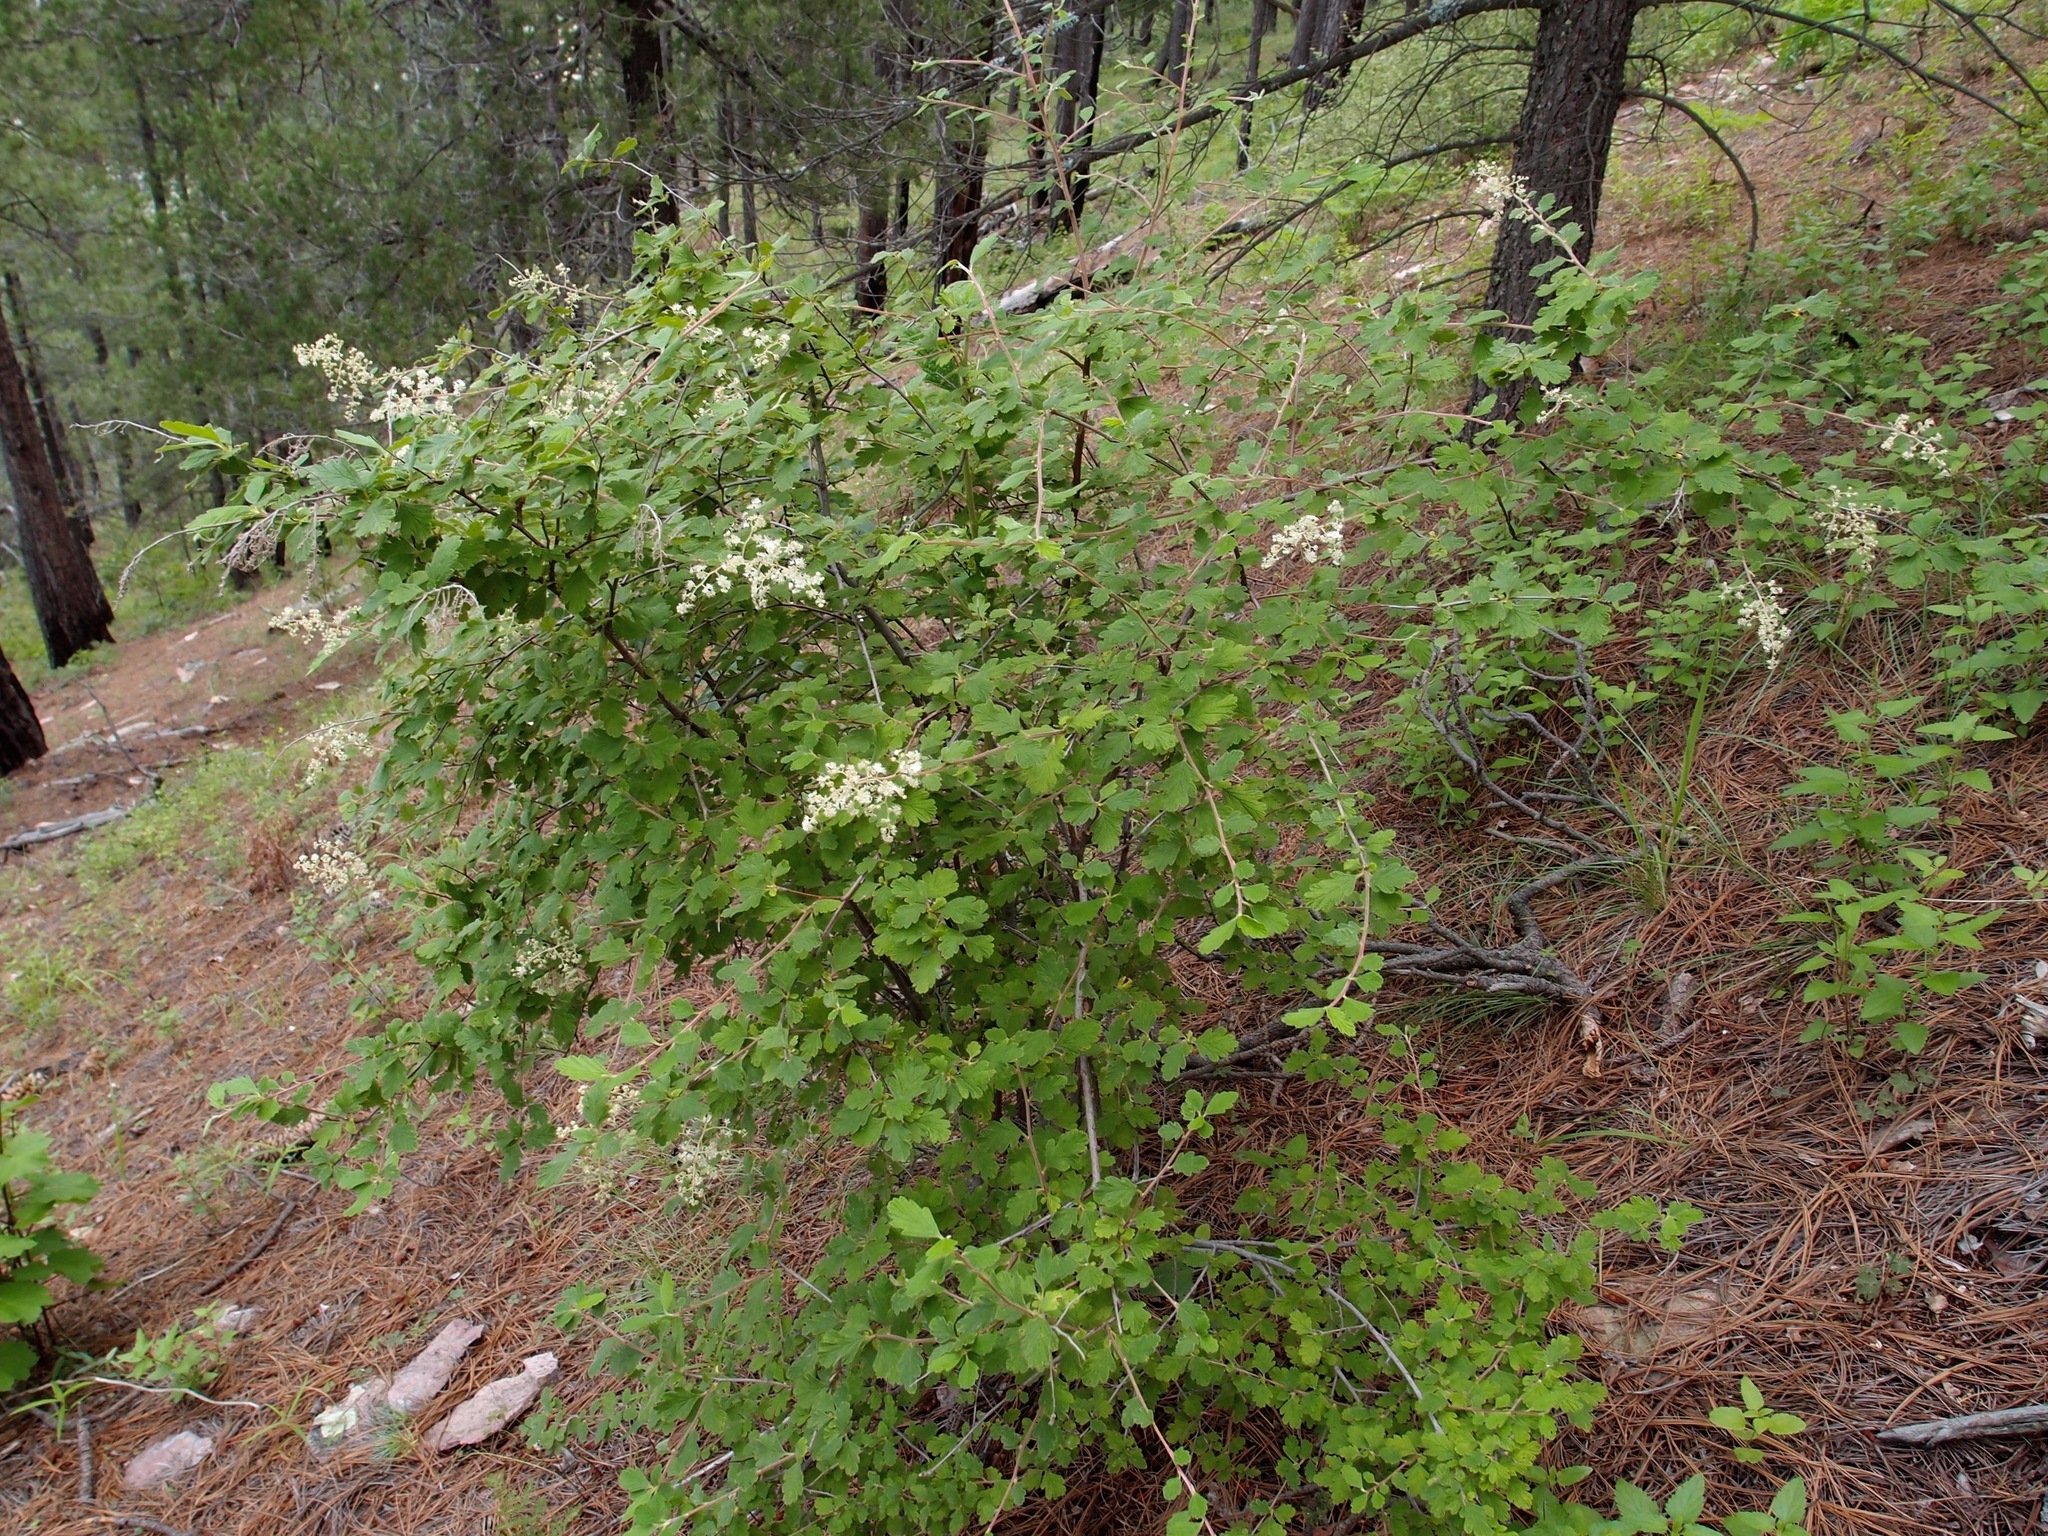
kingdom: Plantae
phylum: Tracheophyta
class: Magnoliopsida
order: Rosales
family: Rosaceae
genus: Holodiscus
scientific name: Holodiscus discolor
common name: Oceanspray
